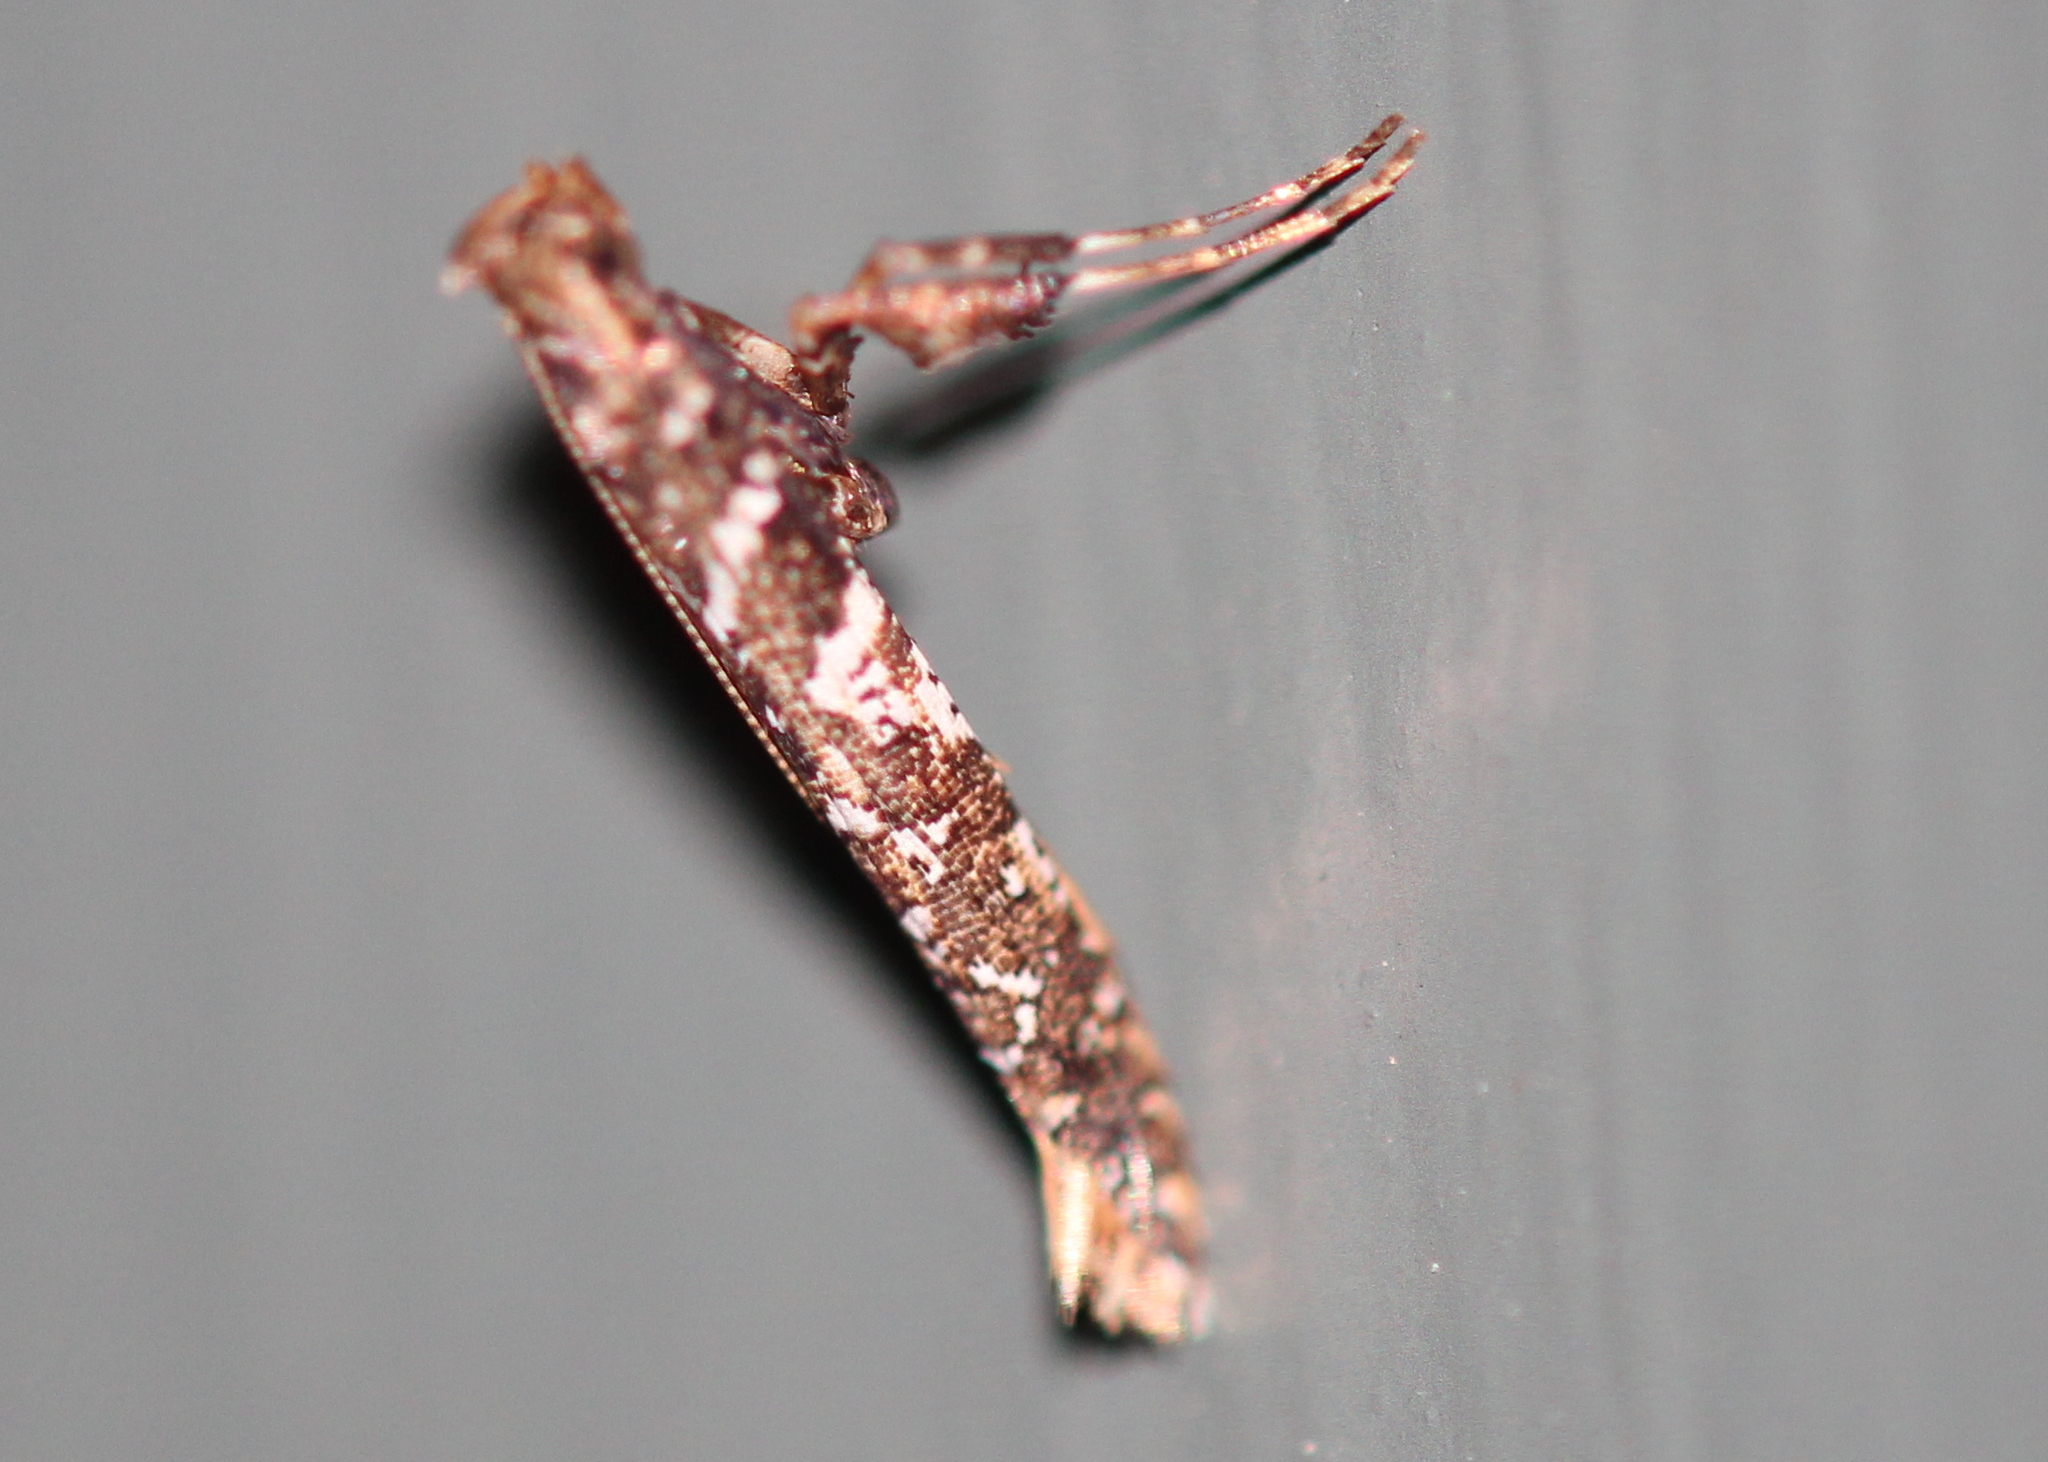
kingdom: Animalia
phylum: Arthropoda
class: Insecta
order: Lepidoptera
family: Gracillariidae
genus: Caloptilia
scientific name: Caloptilia serotinella
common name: Cherry leafroller moth
